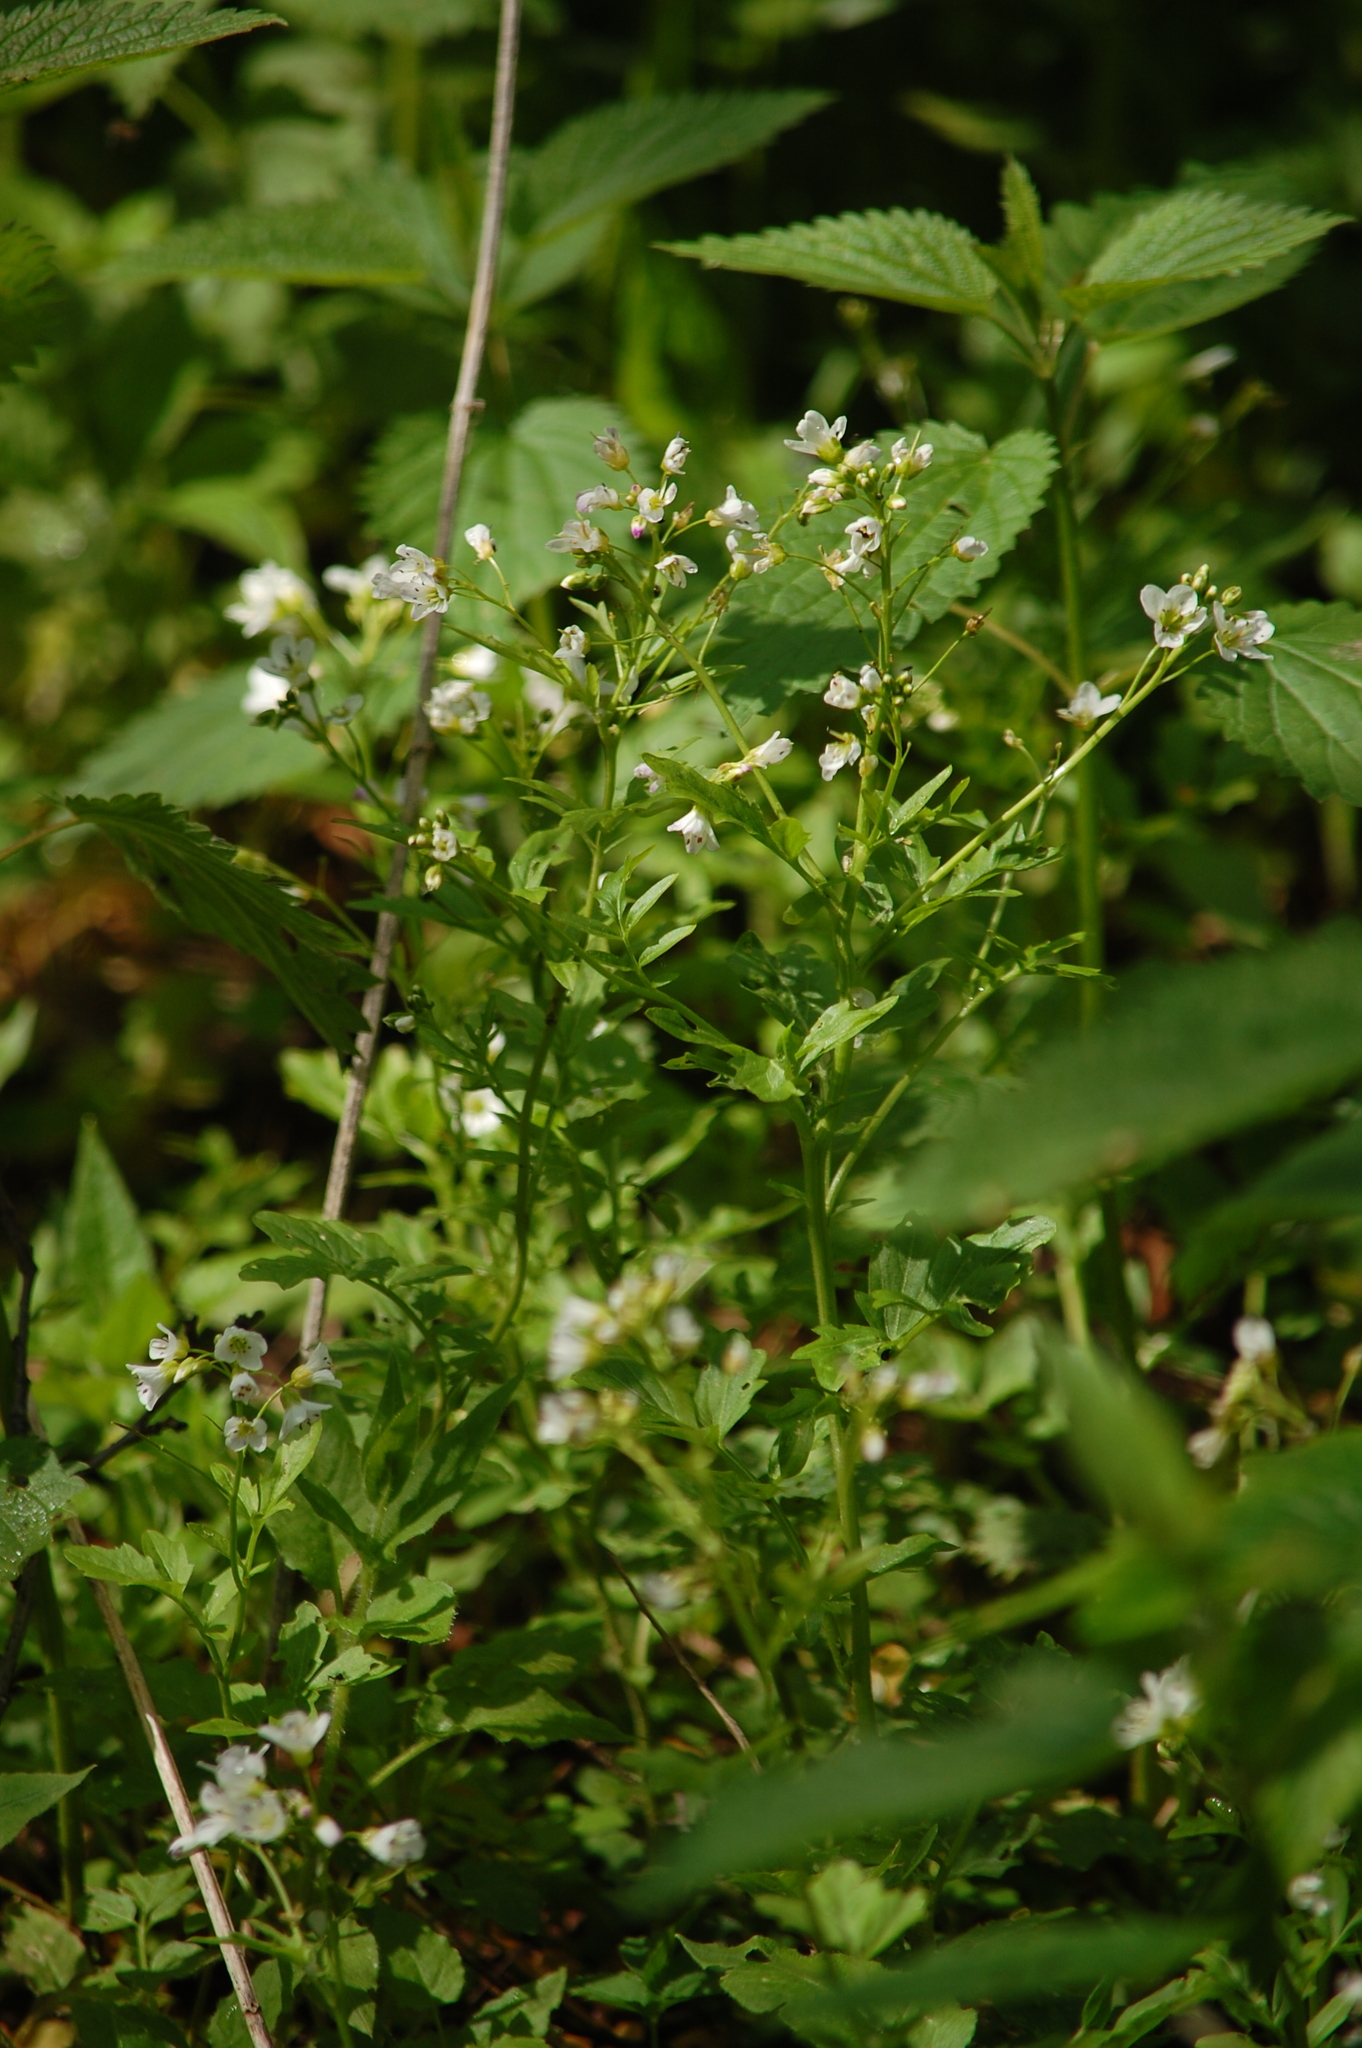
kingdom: Plantae
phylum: Tracheophyta
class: Magnoliopsida
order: Brassicales
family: Brassicaceae
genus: Cardamine
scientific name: Cardamine amara
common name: Large bitter-cress
